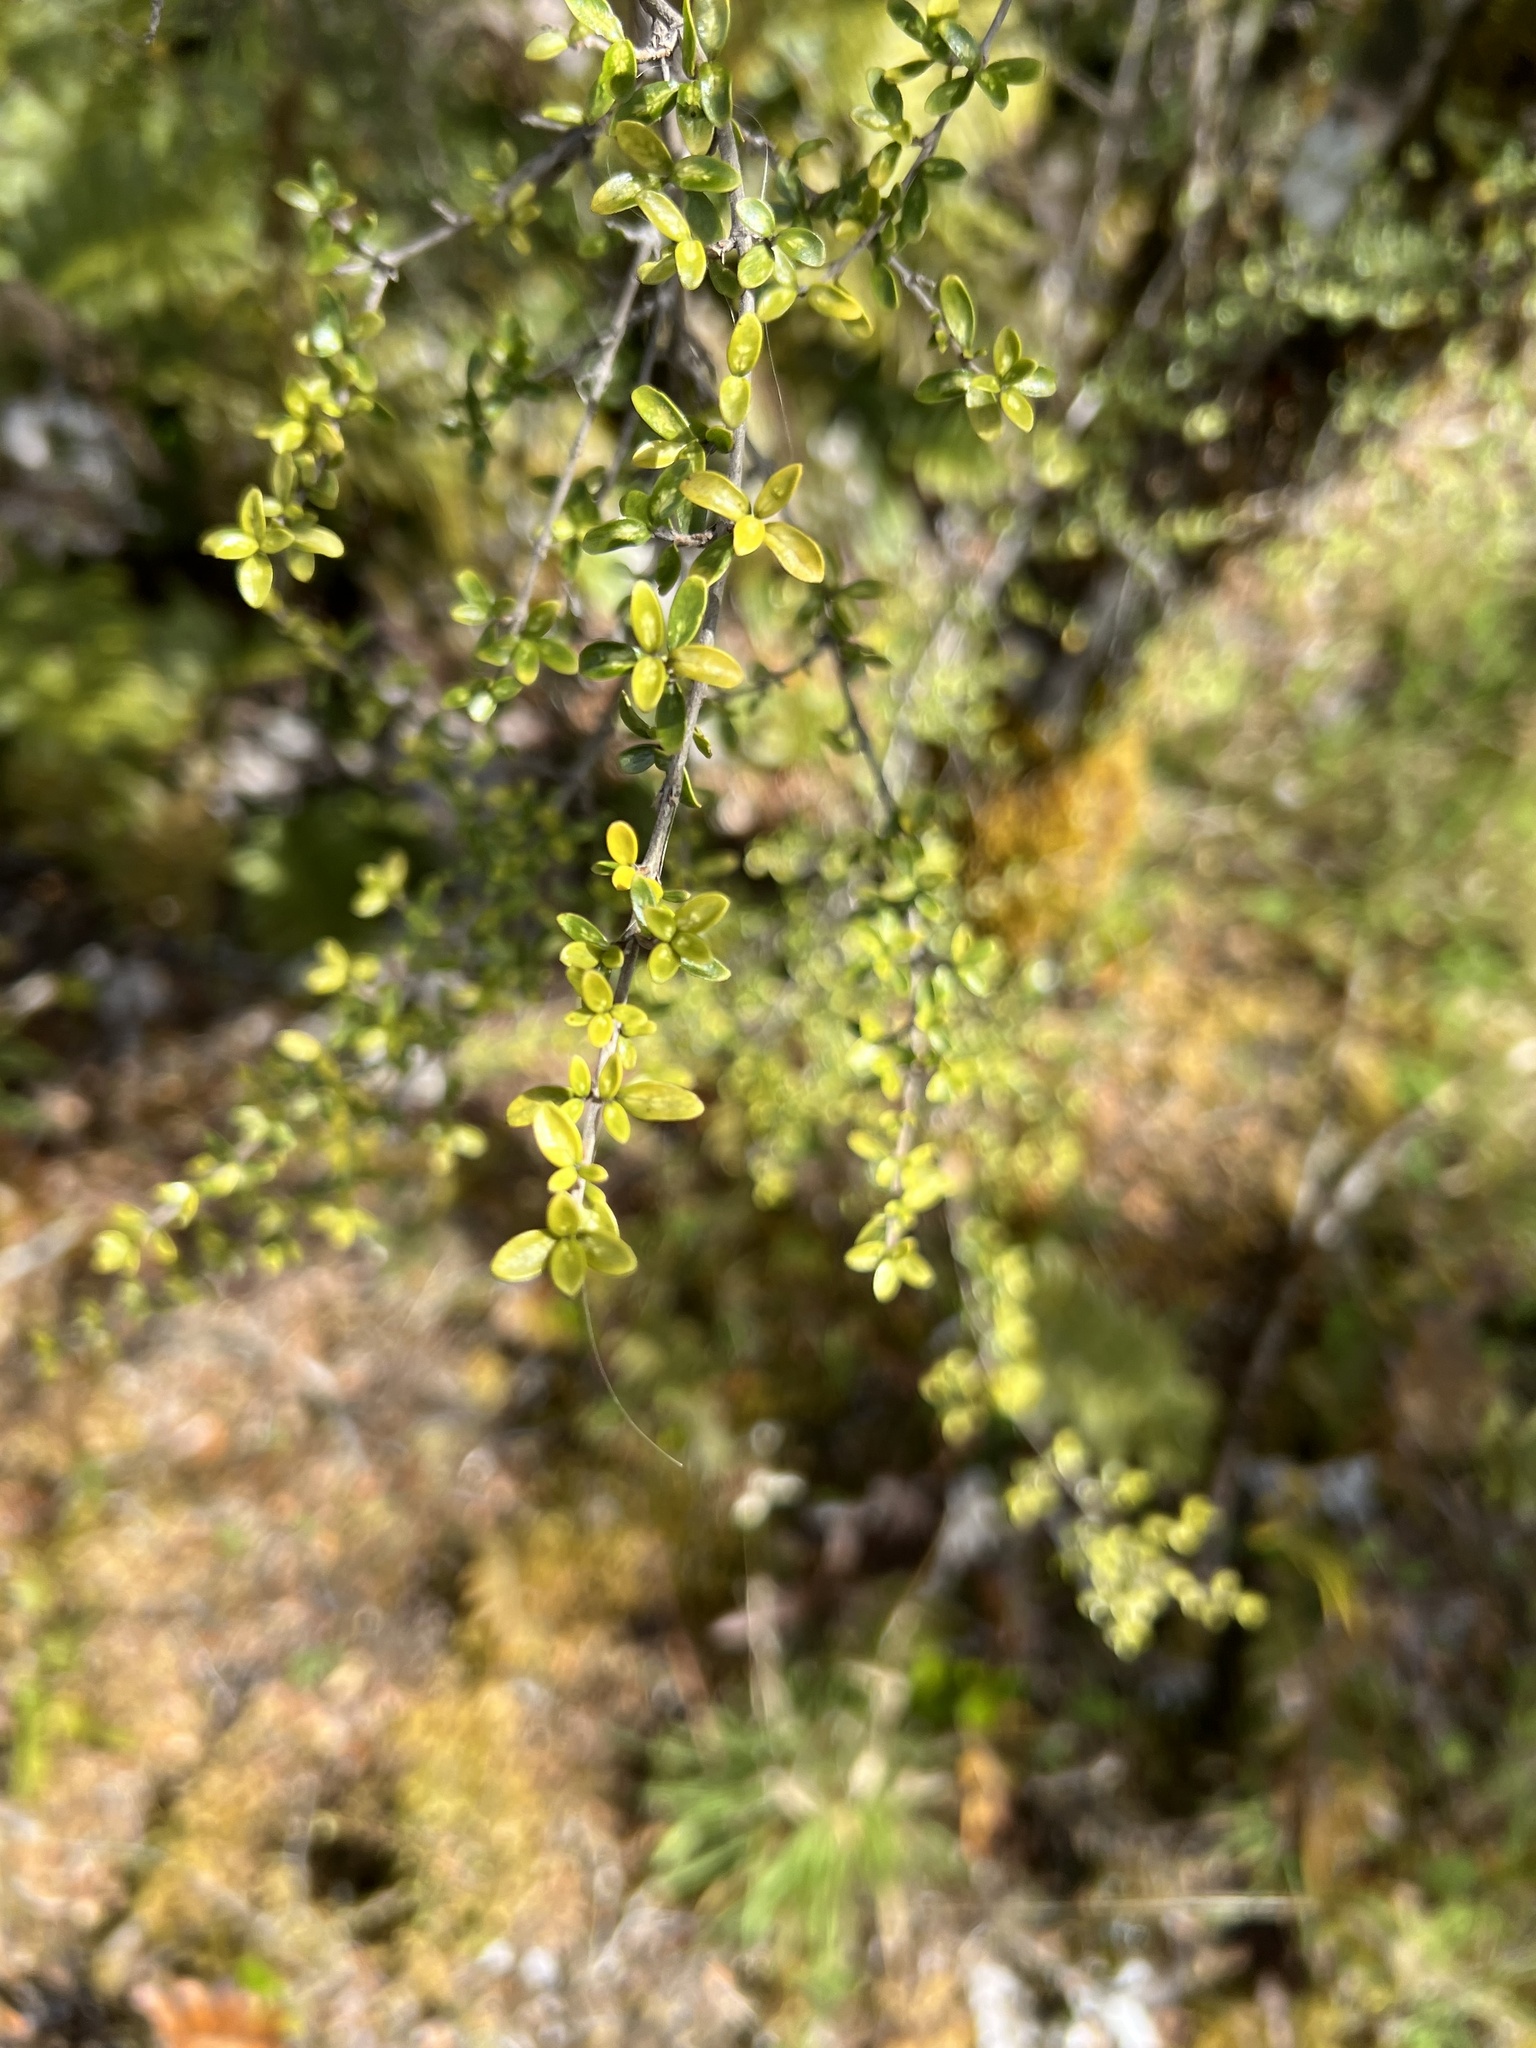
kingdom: Plantae
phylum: Tracheophyta
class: Magnoliopsida
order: Gentianales
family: Rubiaceae
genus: Coprosma
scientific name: Coprosma dumosa
